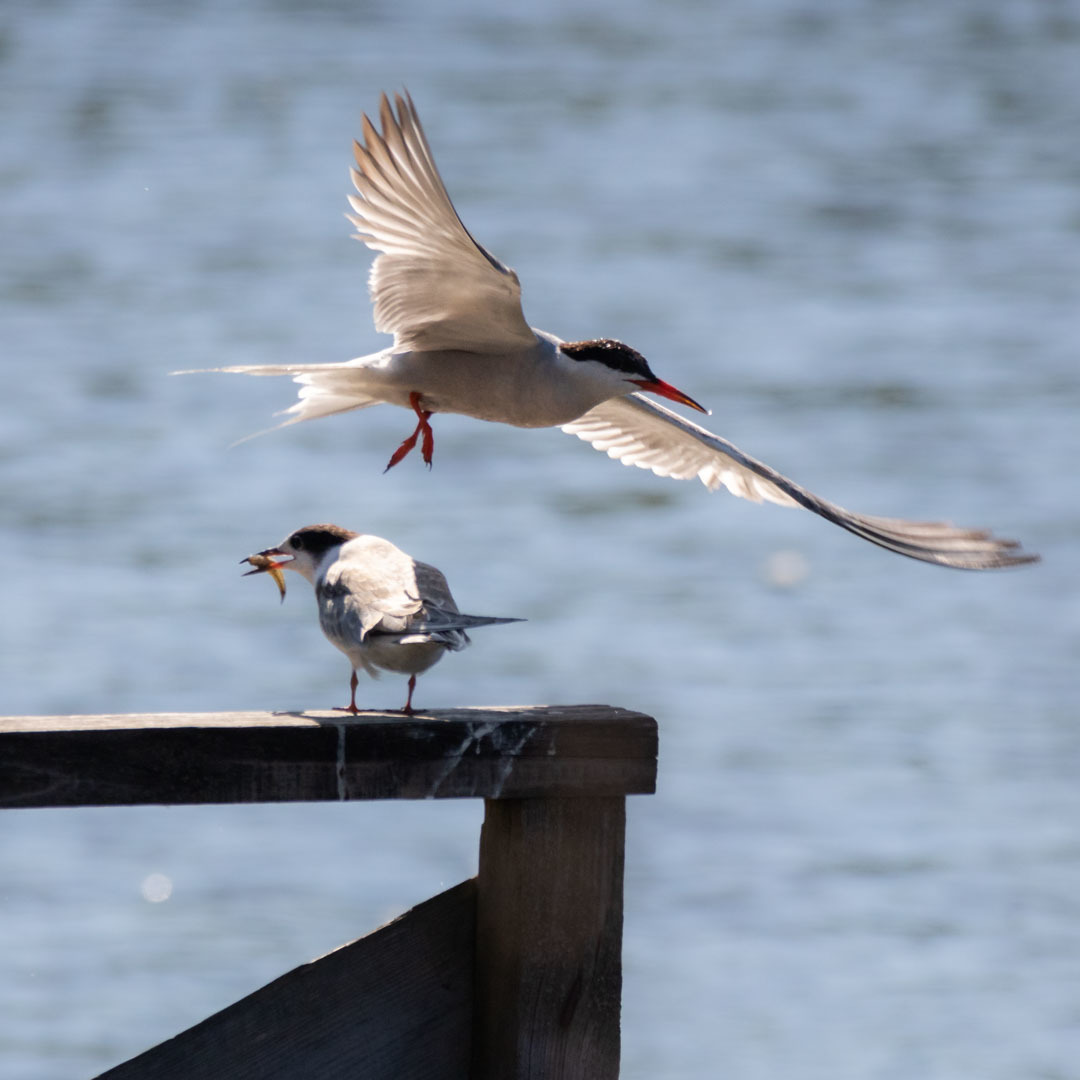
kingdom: Animalia
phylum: Chordata
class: Aves
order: Charadriiformes
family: Laridae
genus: Sterna
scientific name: Sterna hirundo
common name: Common tern
